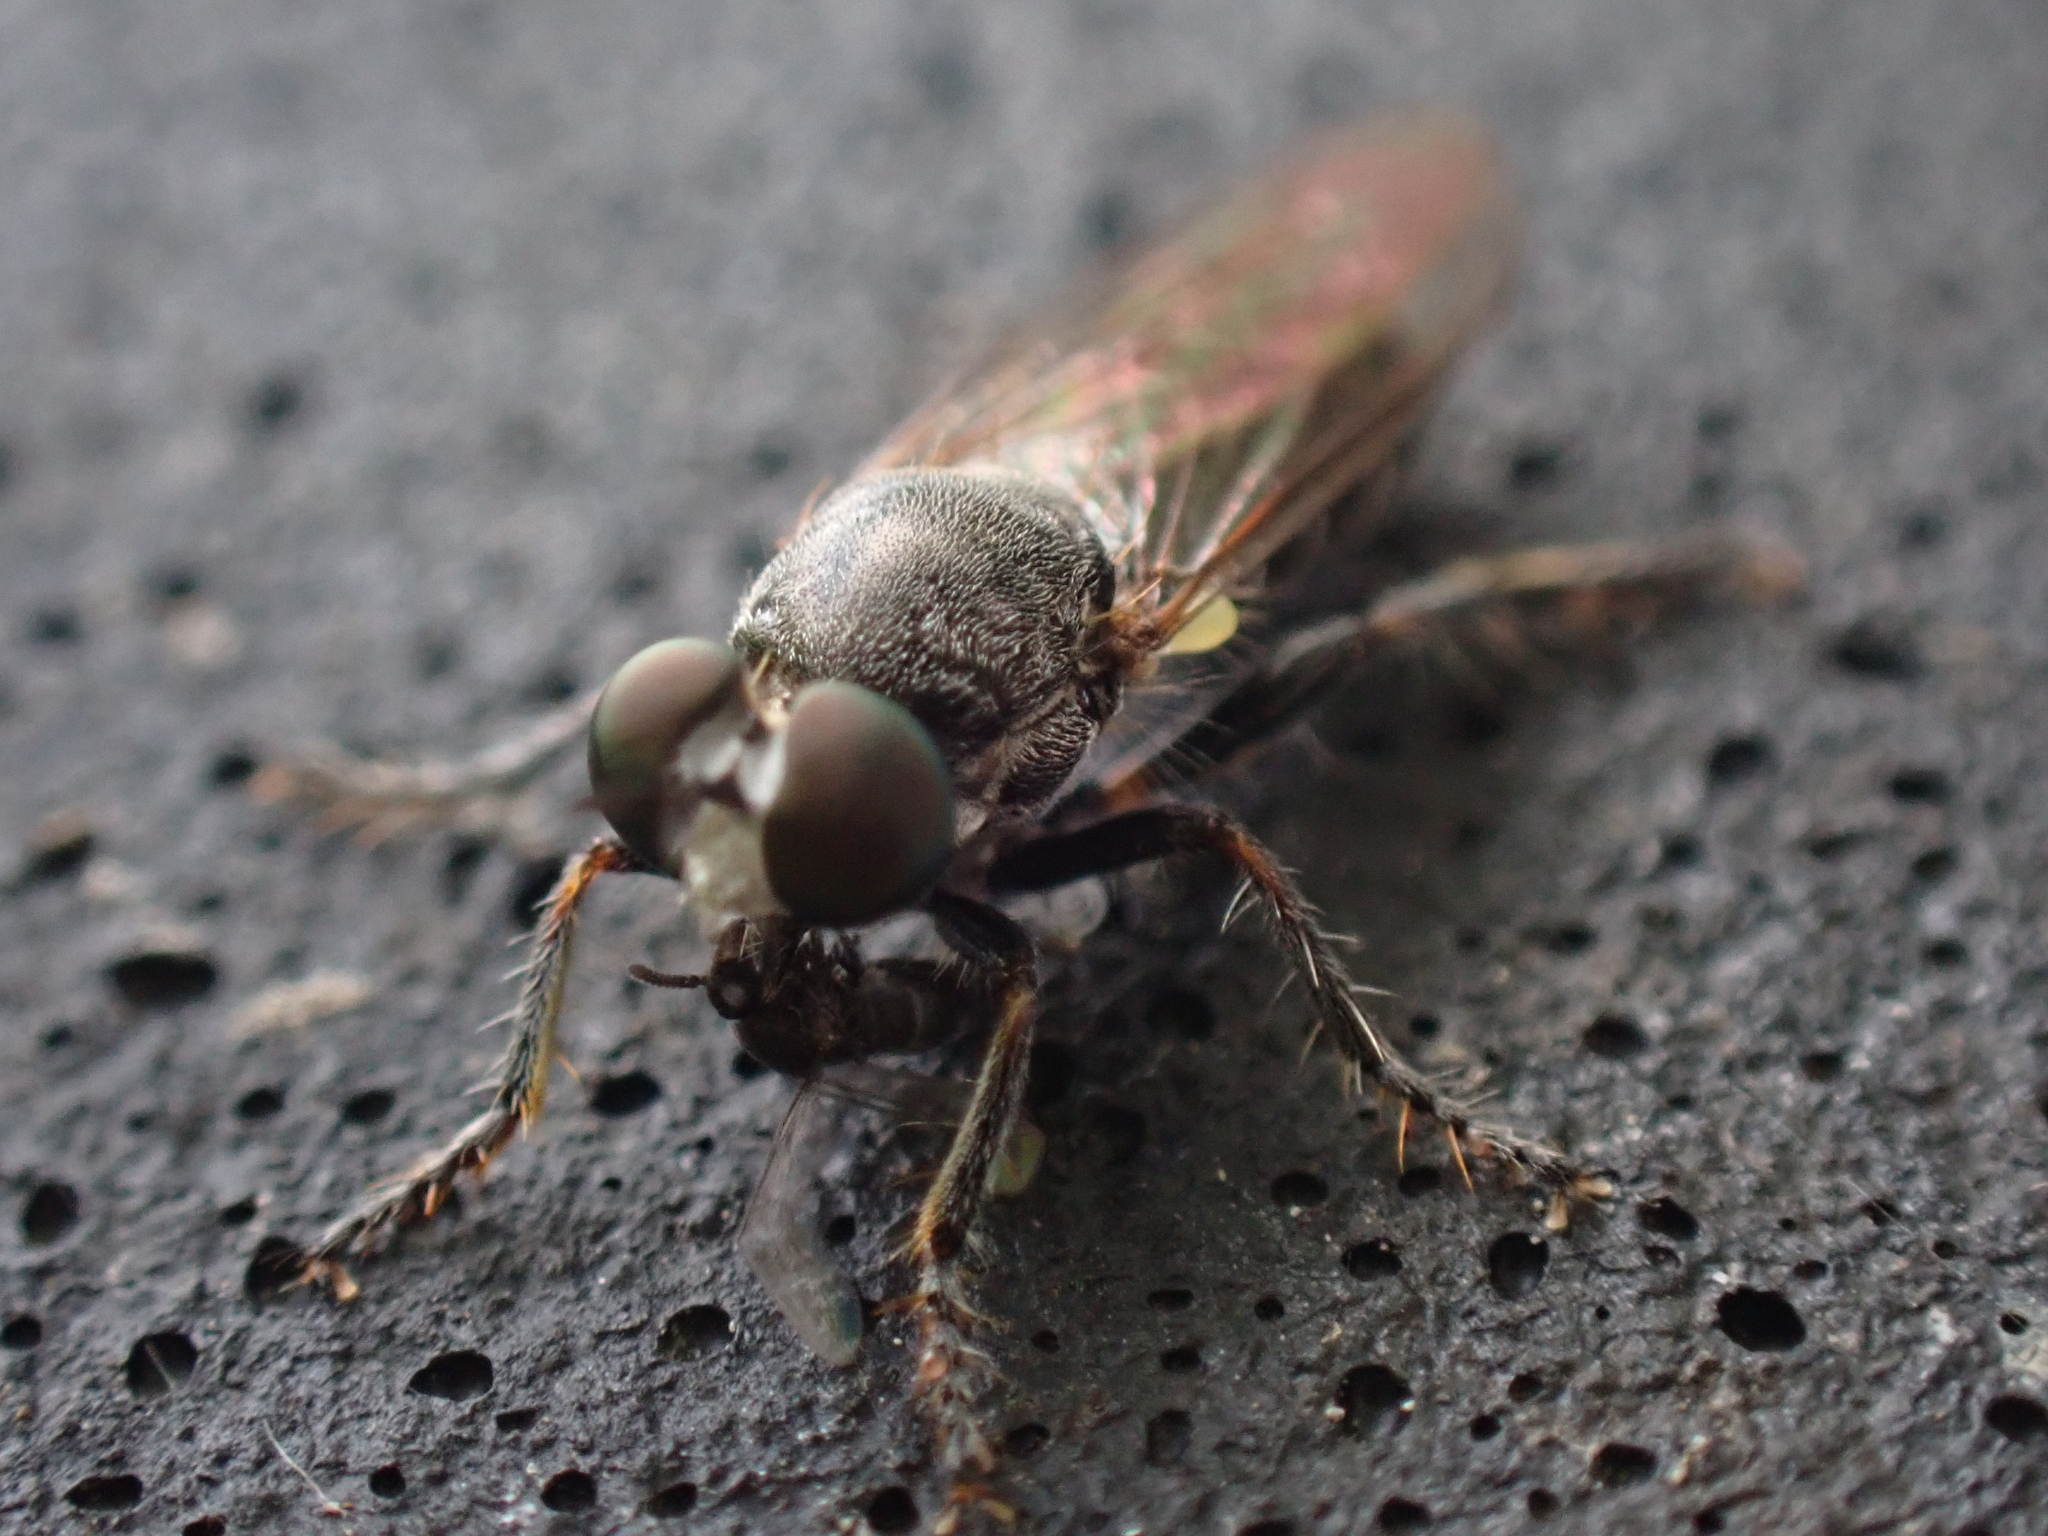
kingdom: Animalia
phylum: Arthropoda
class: Insecta
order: Diptera
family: Asilidae
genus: Atomosia
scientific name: Atomosia puella
